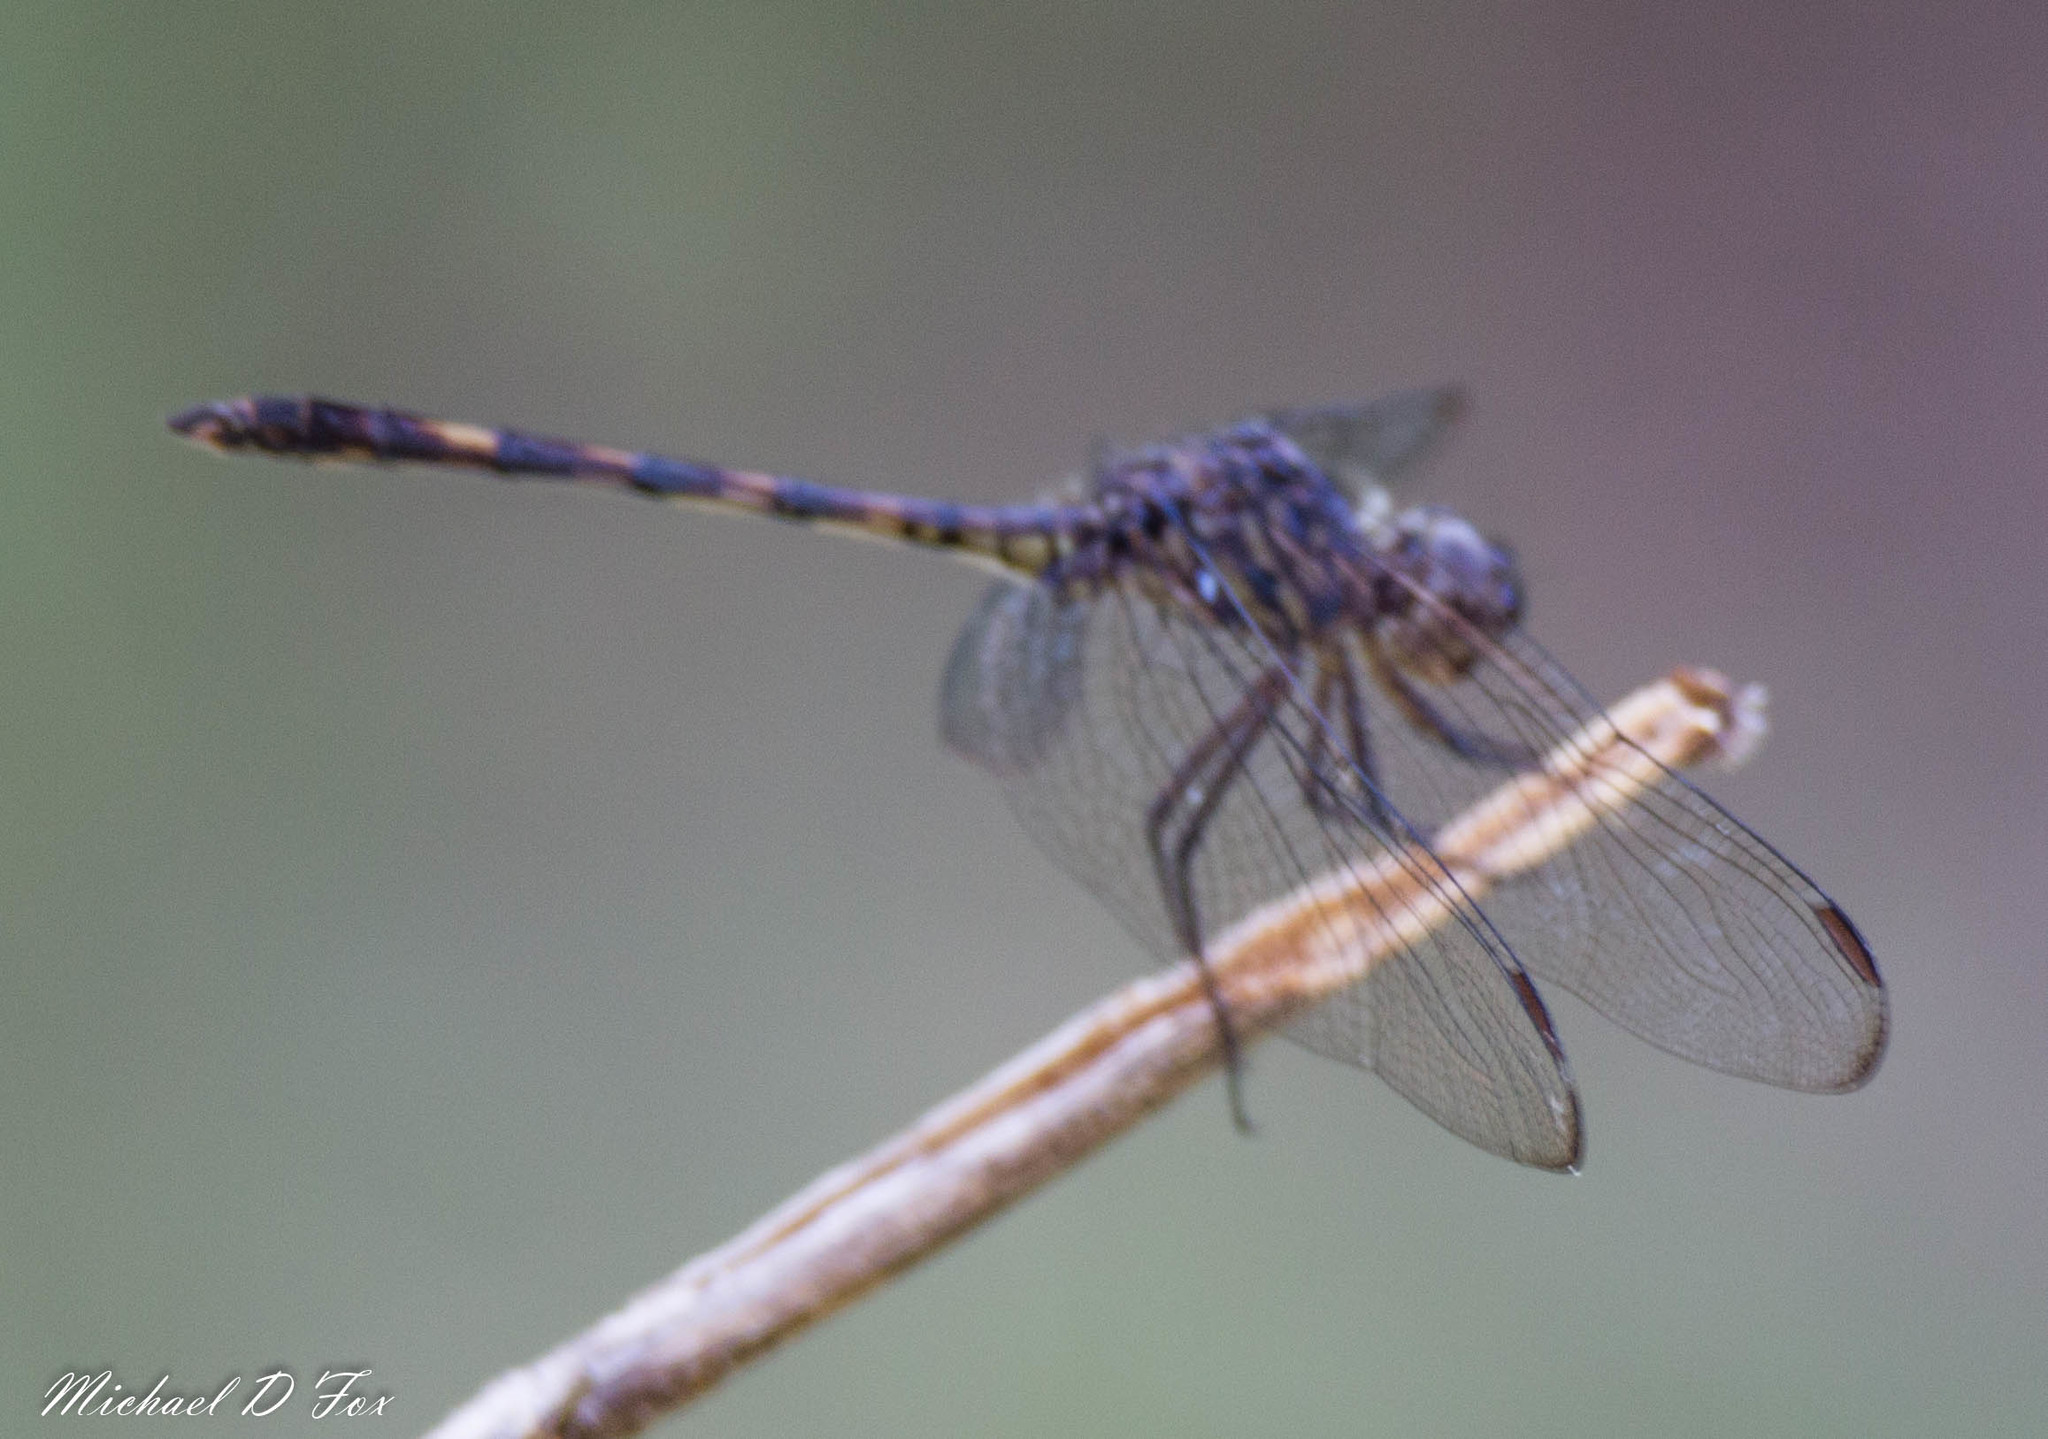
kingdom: Animalia
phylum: Arthropoda
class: Insecta
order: Odonata
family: Libellulidae
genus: Dythemis
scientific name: Dythemis nigrescens
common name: Black setwing
